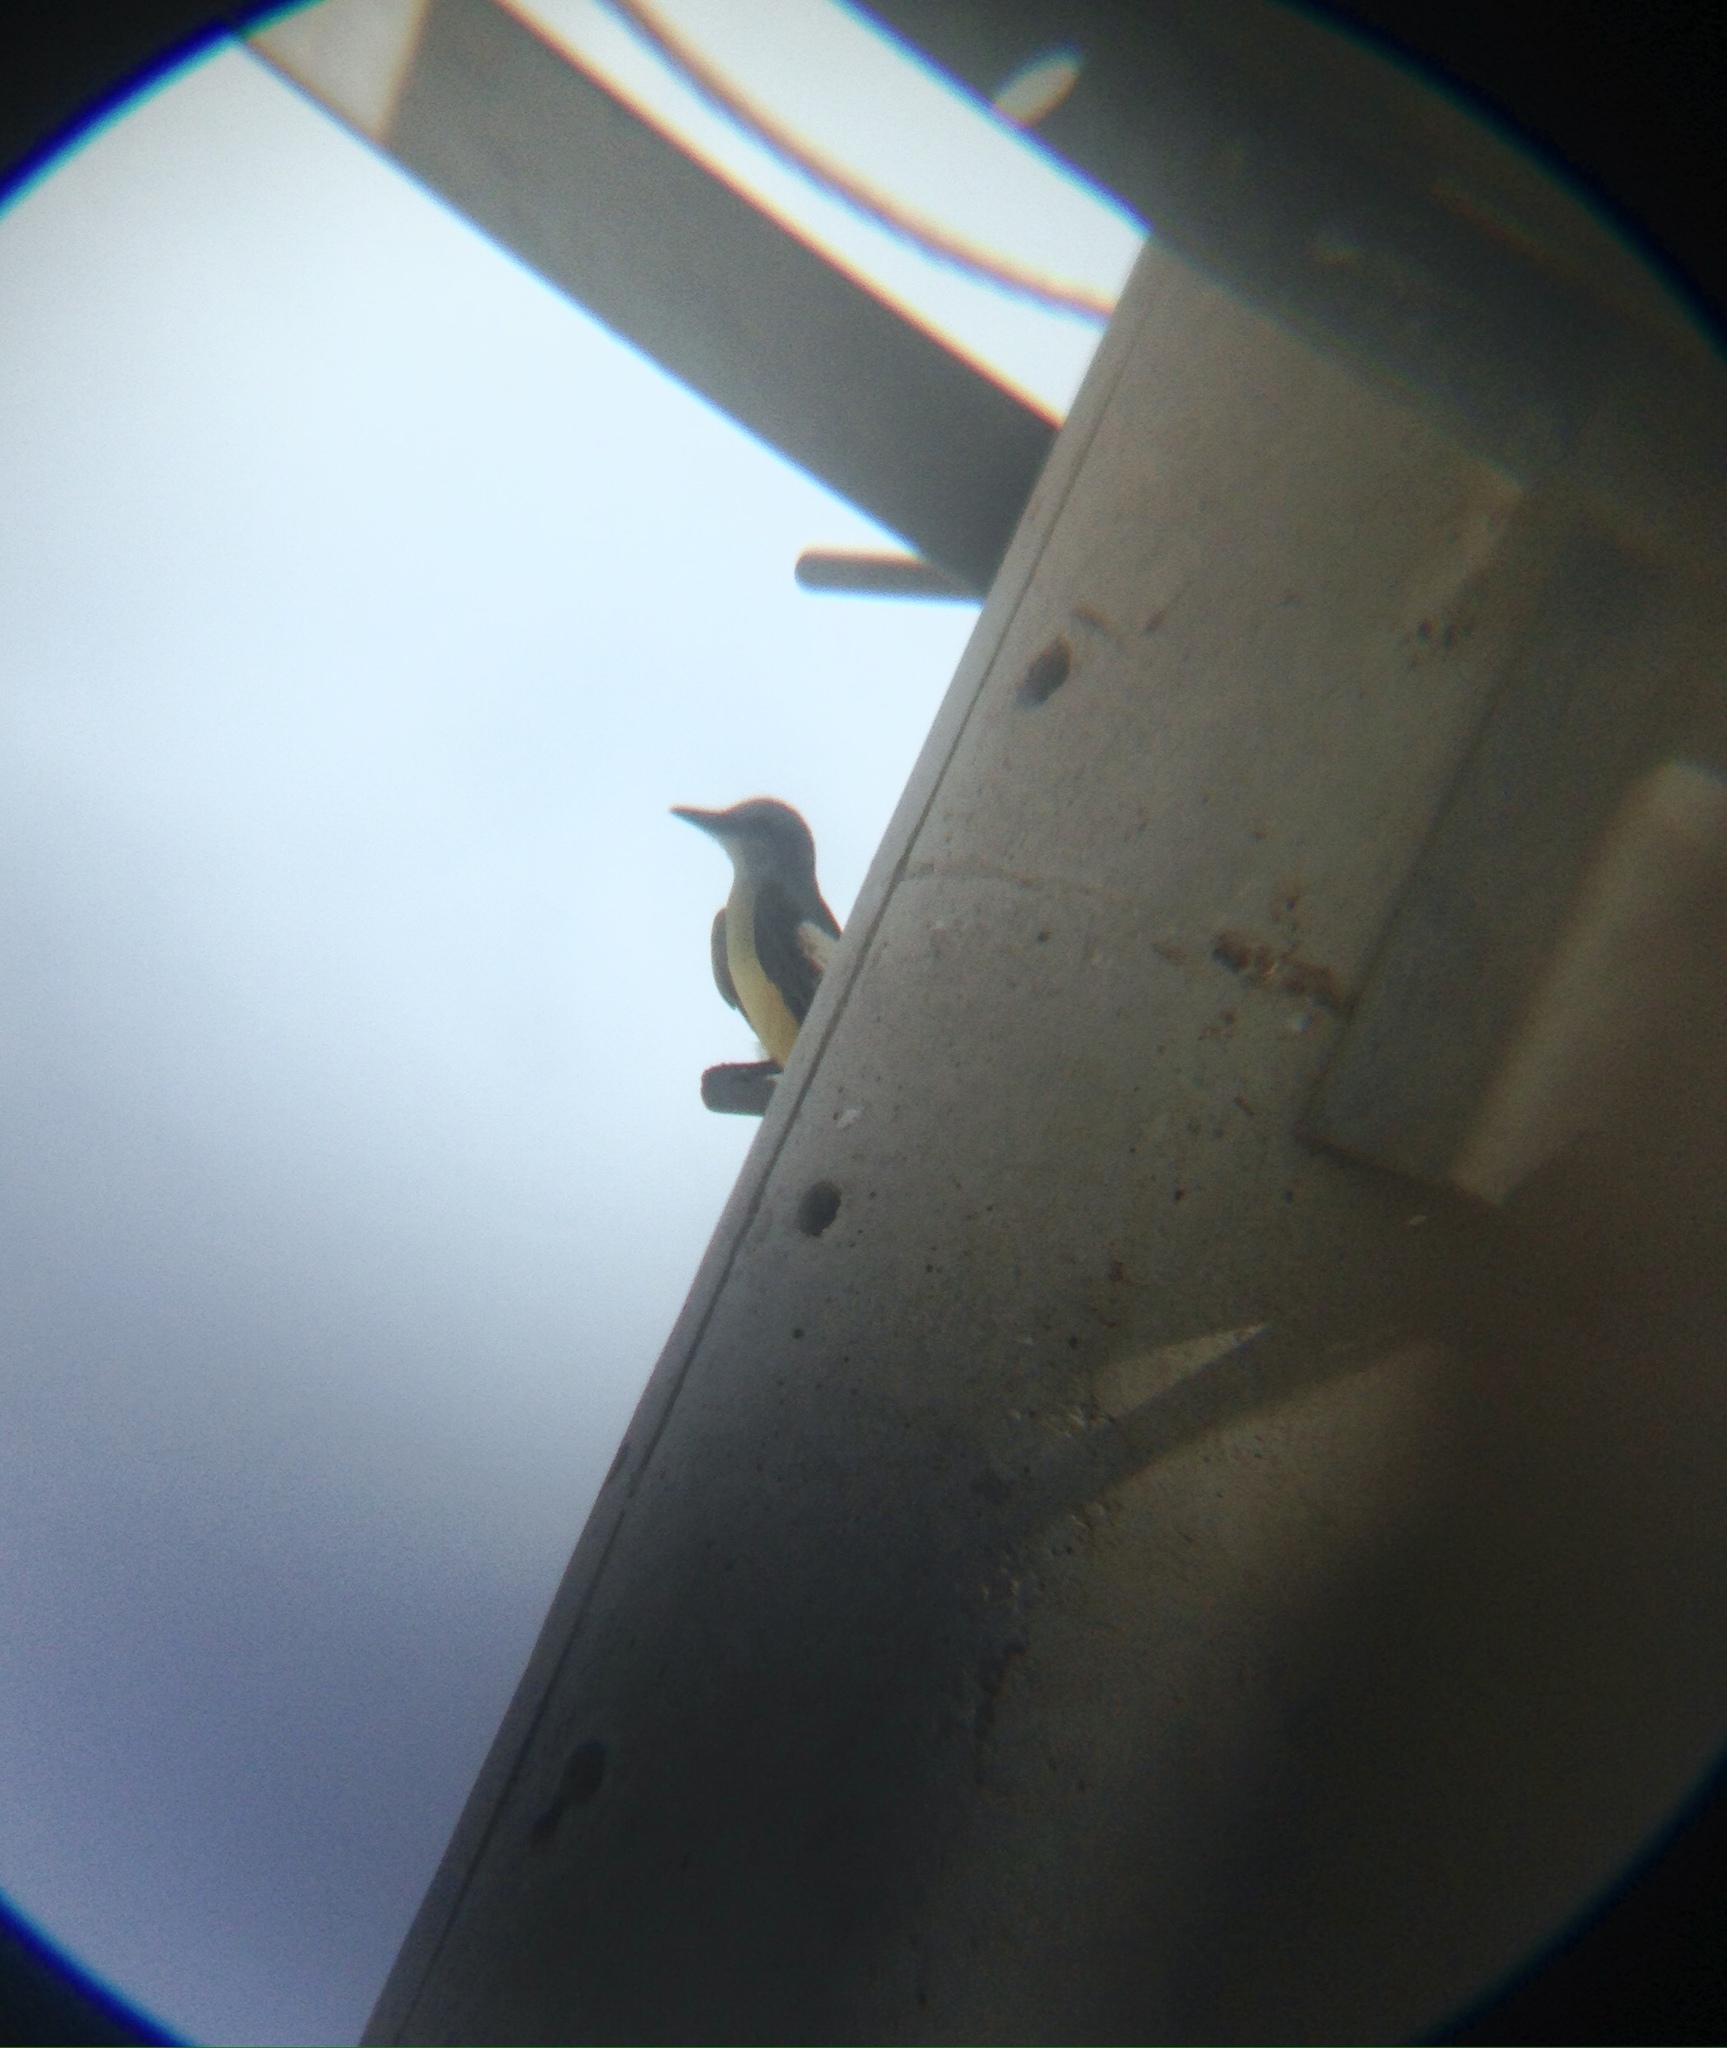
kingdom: Animalia
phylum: Chordata
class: Aves
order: Passeriformes
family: Tyrannidae
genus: Tyrannus
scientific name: Tyrannus melancholicus
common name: Tropical kingbird
